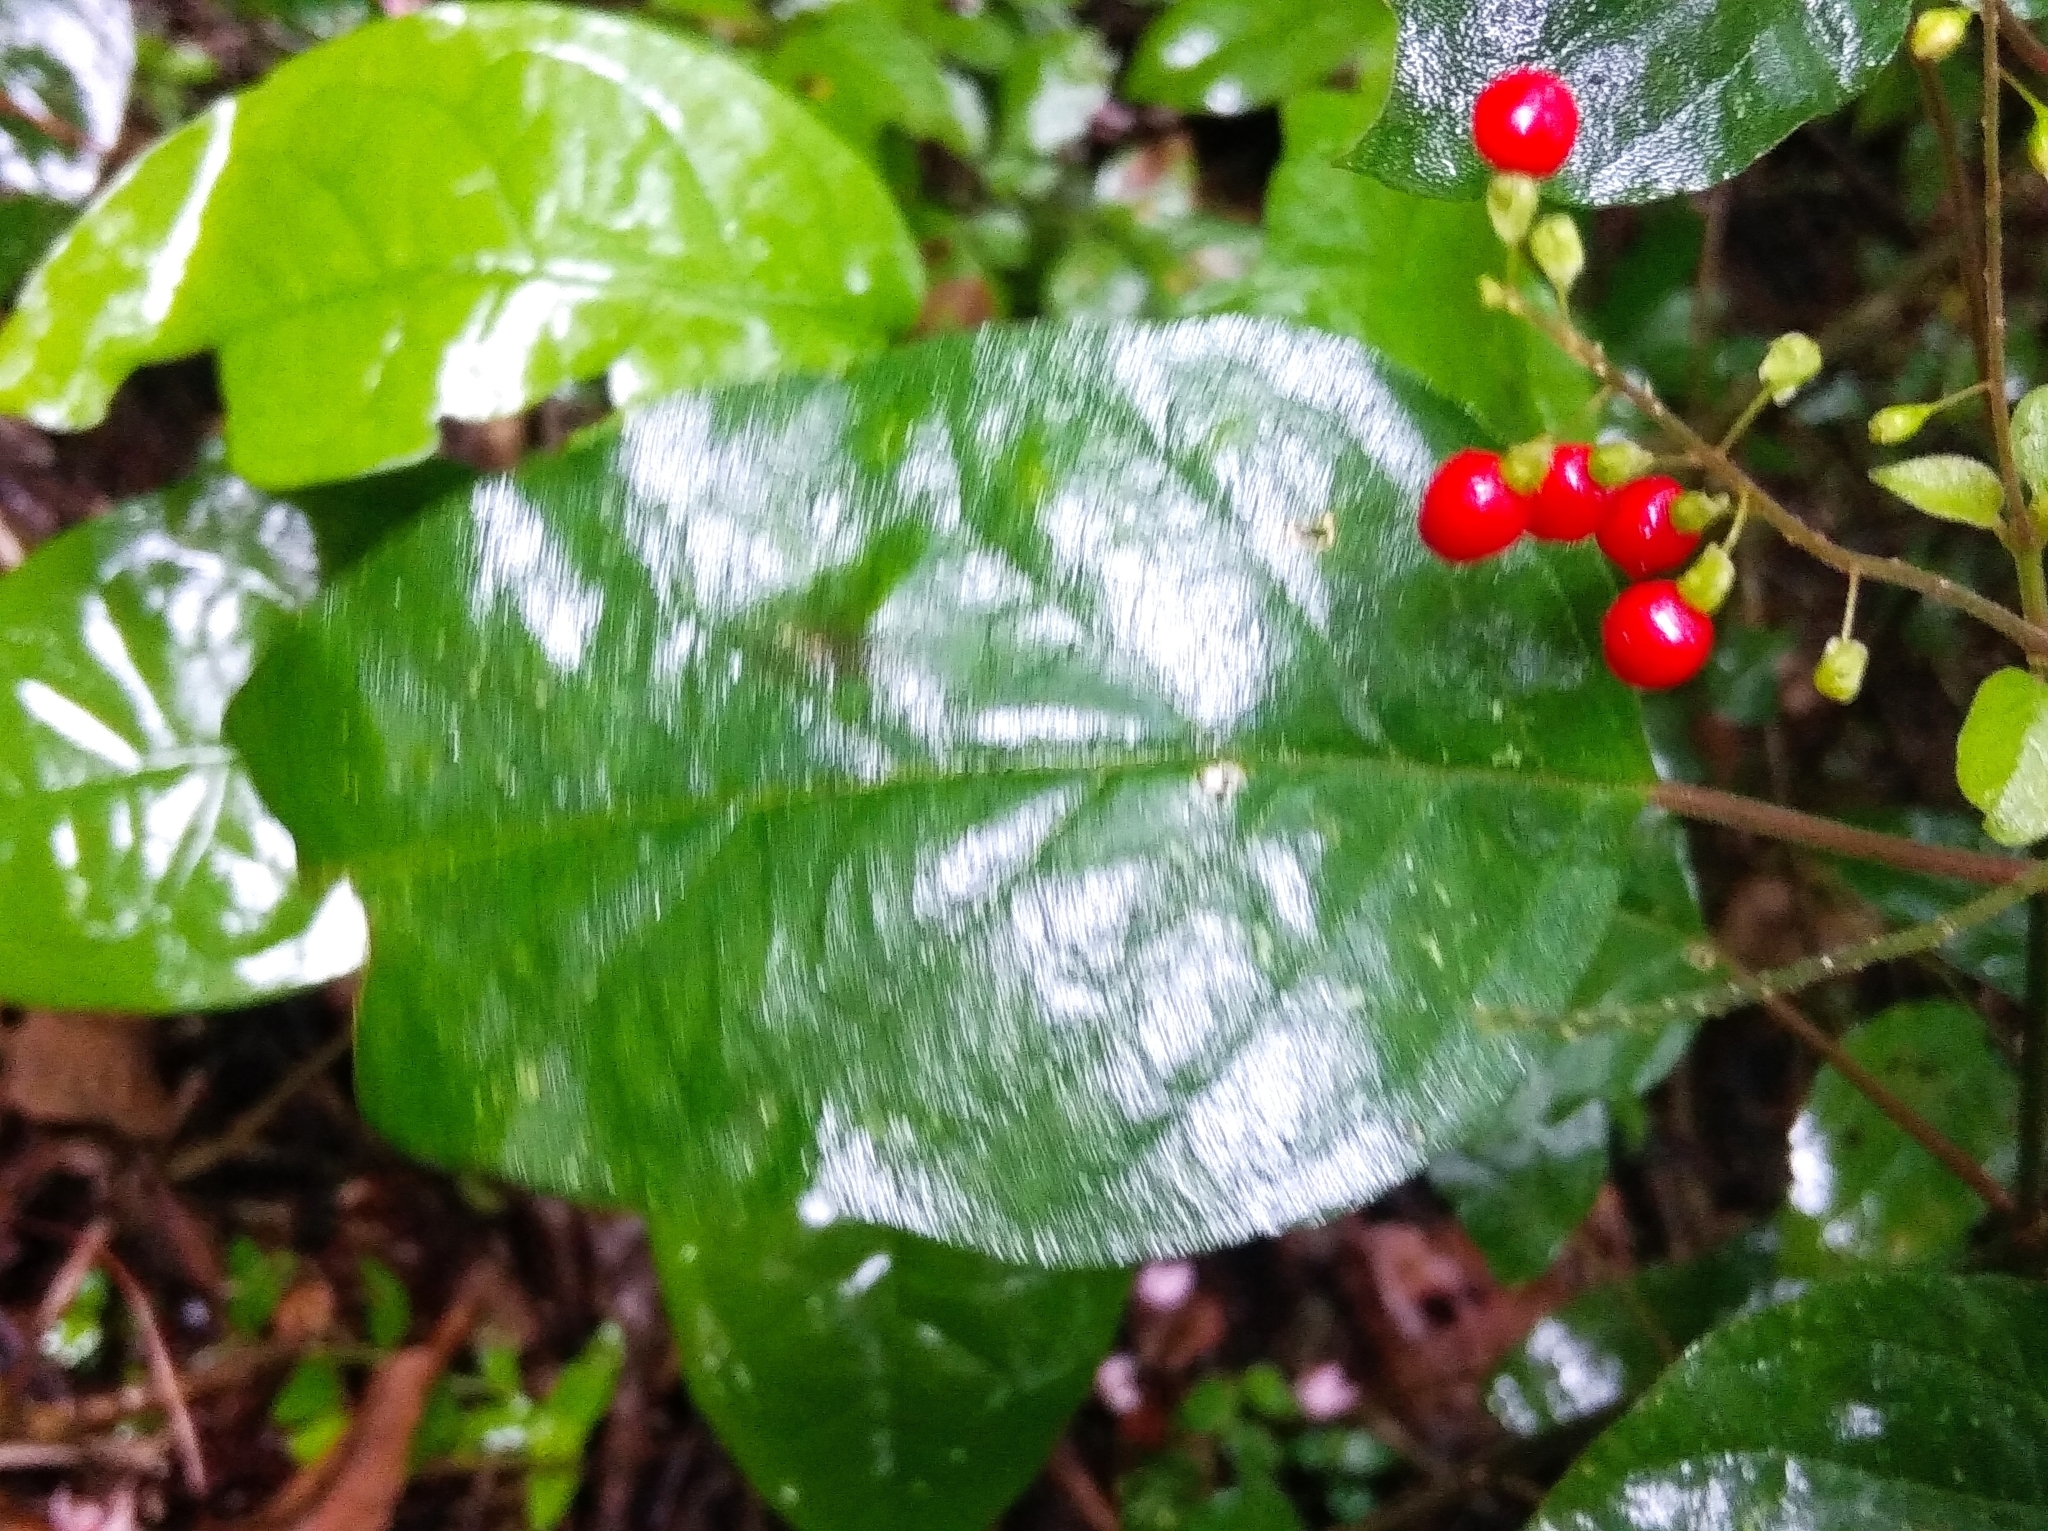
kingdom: Plantae
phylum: Tracheophyta
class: Magnoliopsida
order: Caryophyllales
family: Phytolaccaceae
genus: Rivina
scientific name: Rivina humilis
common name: Rougeplant
